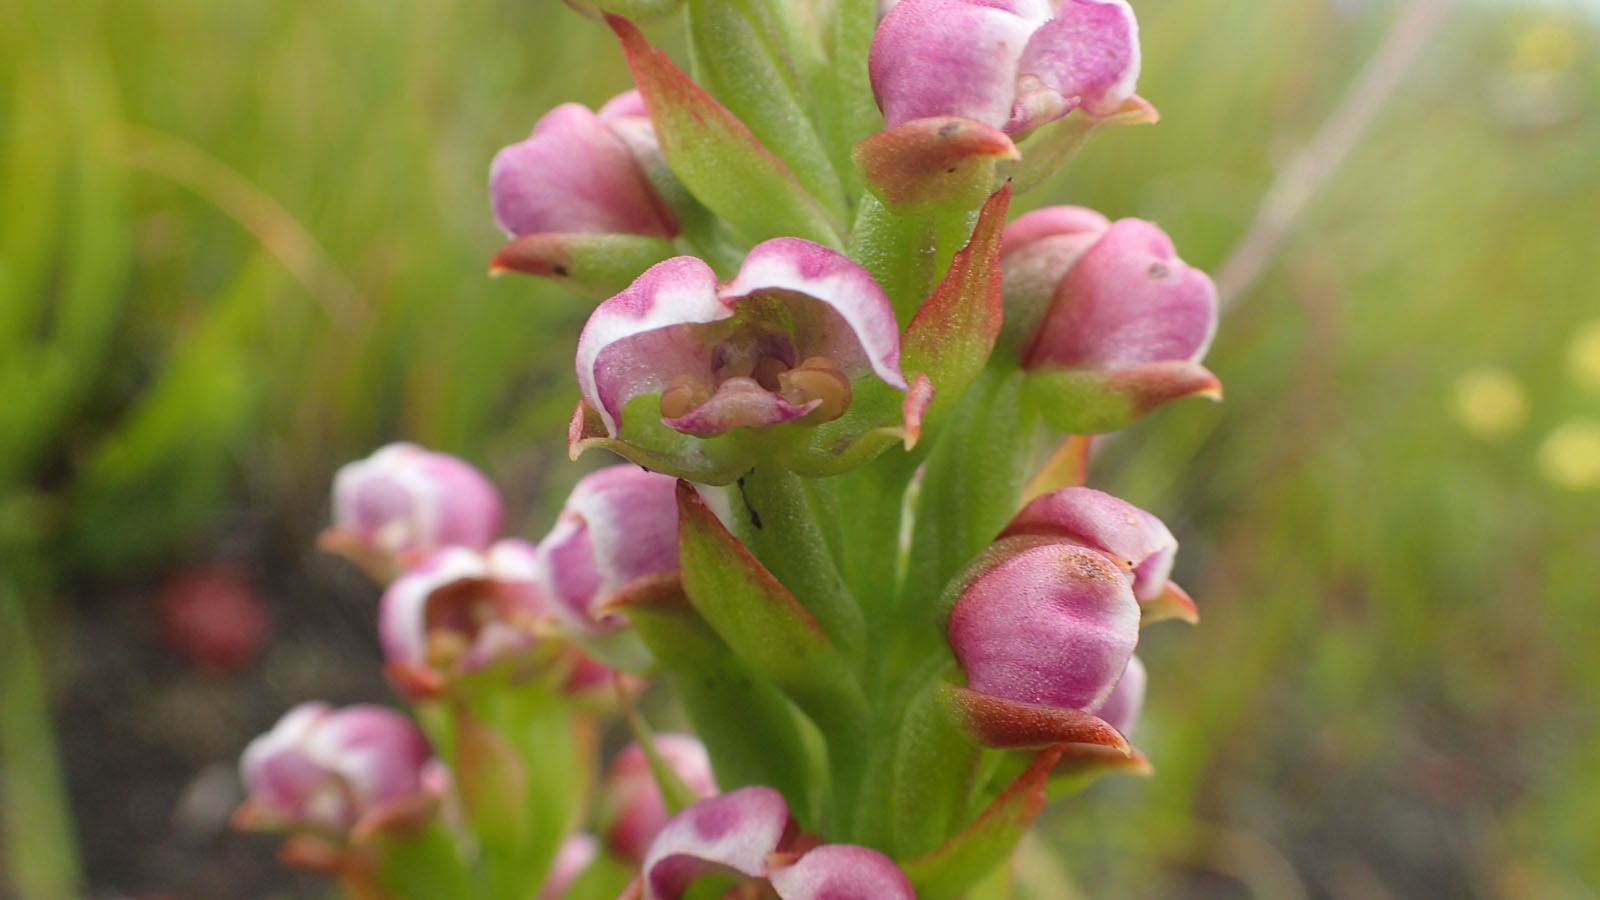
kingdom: Plantae
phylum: Tracheophyta
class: Liliopsida
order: Asparagales
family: Orchidaceae
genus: Evotella
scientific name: Evotella carnosa
